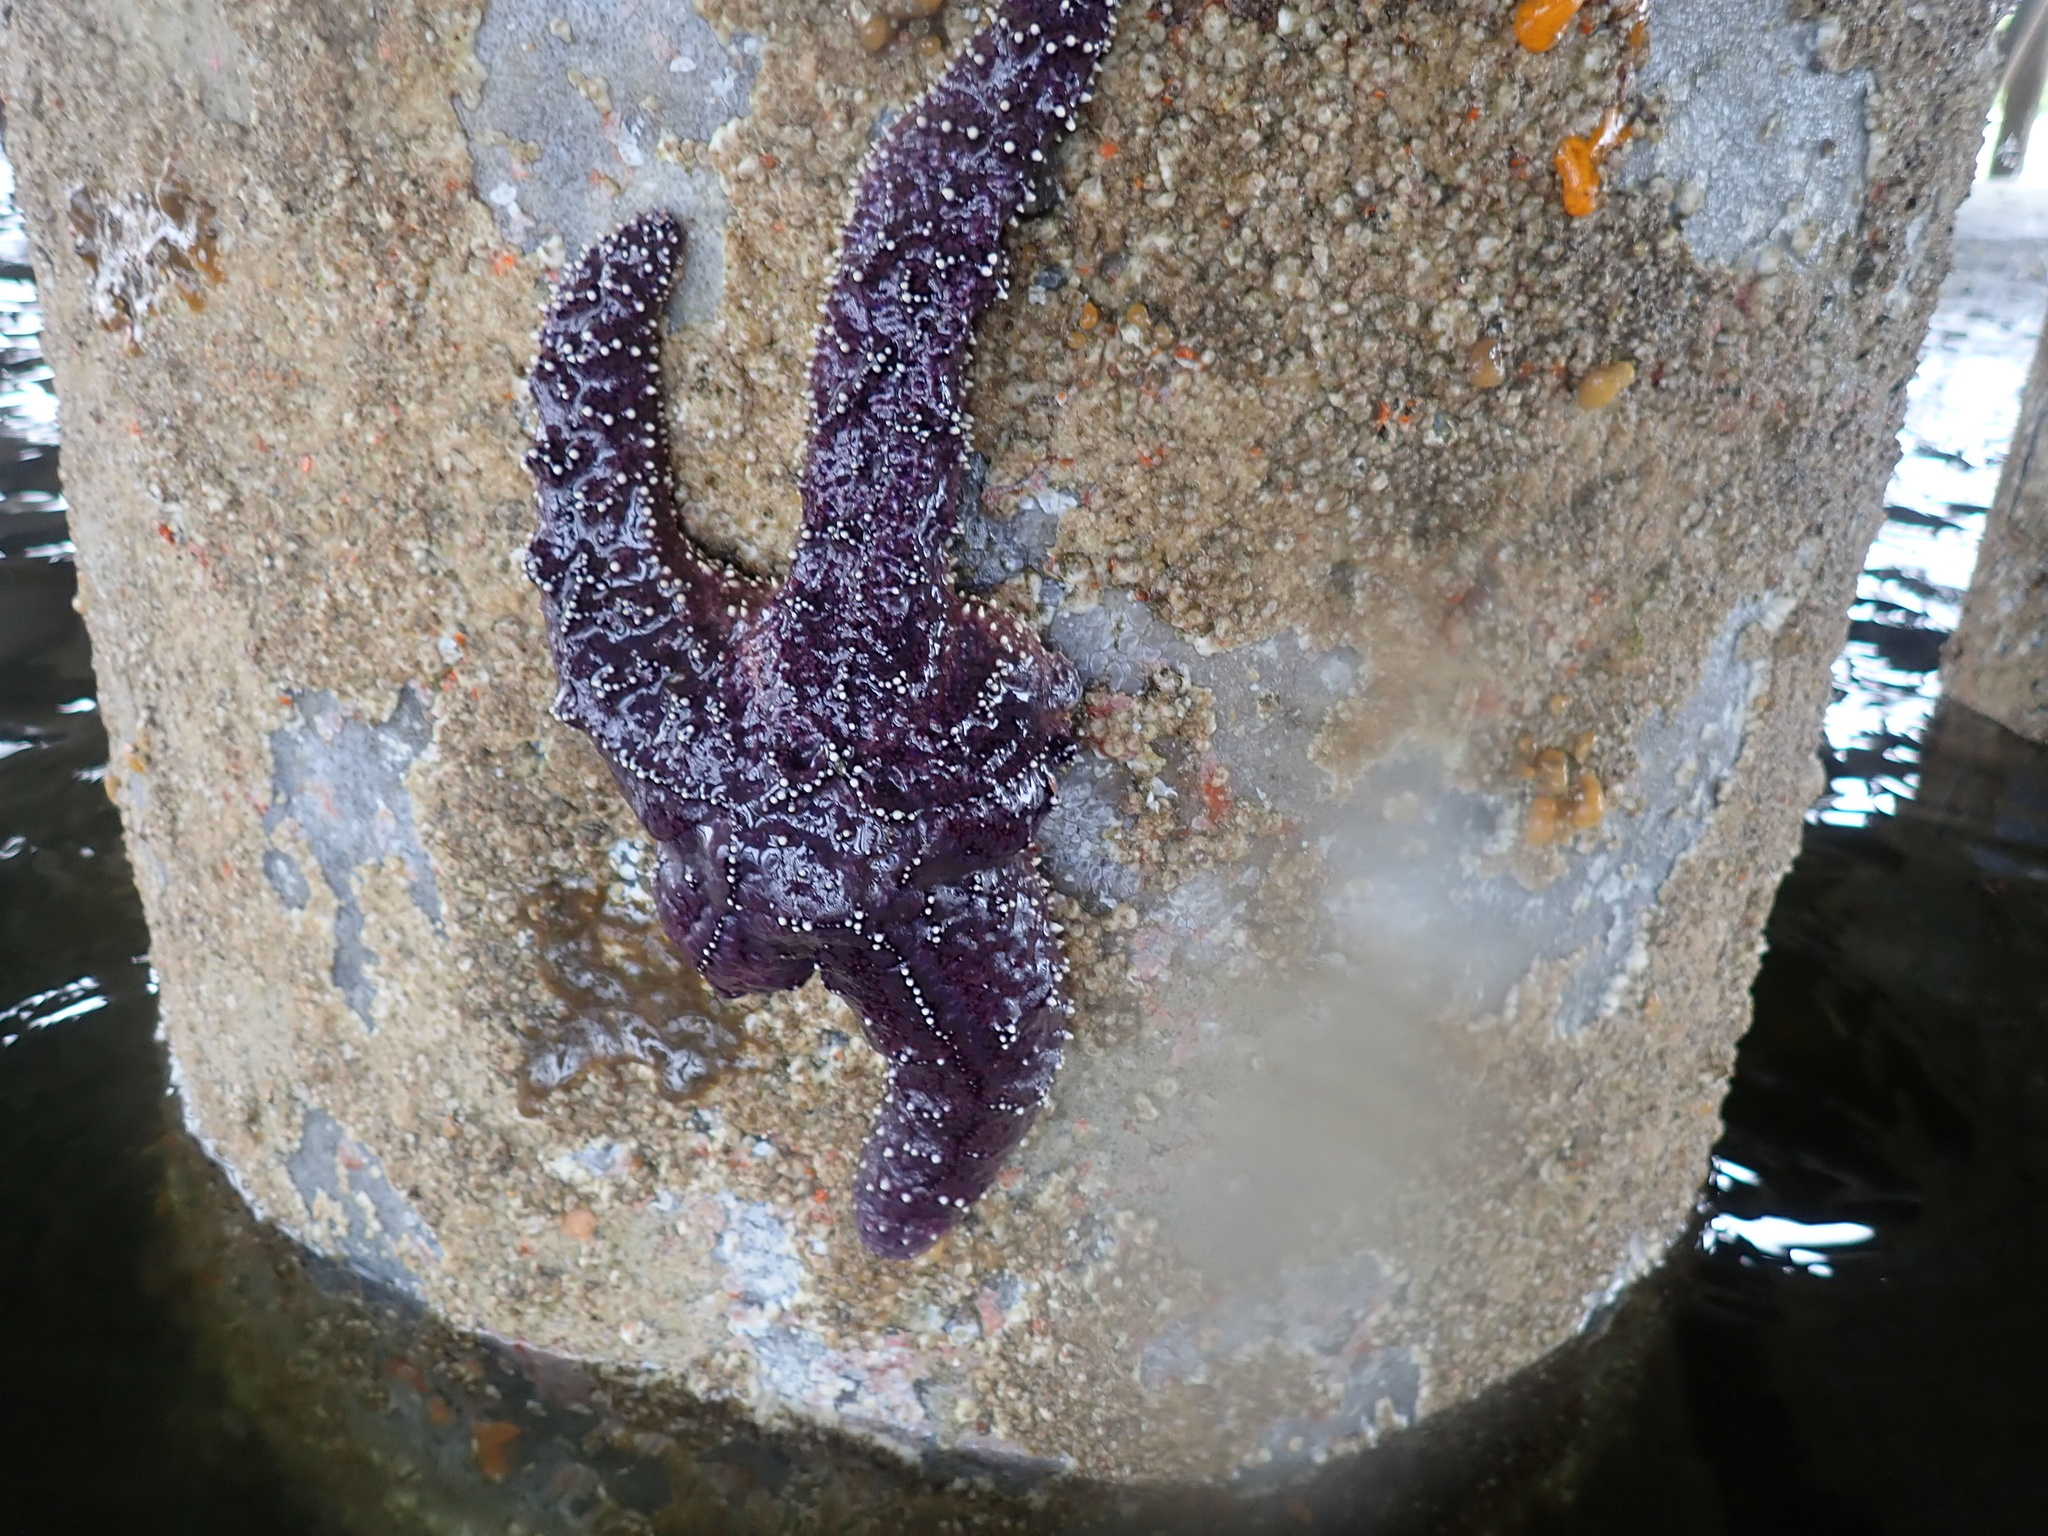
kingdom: Animalia
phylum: Echinodermata
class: Asteroidea
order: Forcipulatida
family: Asteriidae
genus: Pisaster
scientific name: Pisaster ochraceus
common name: Ochre stars
